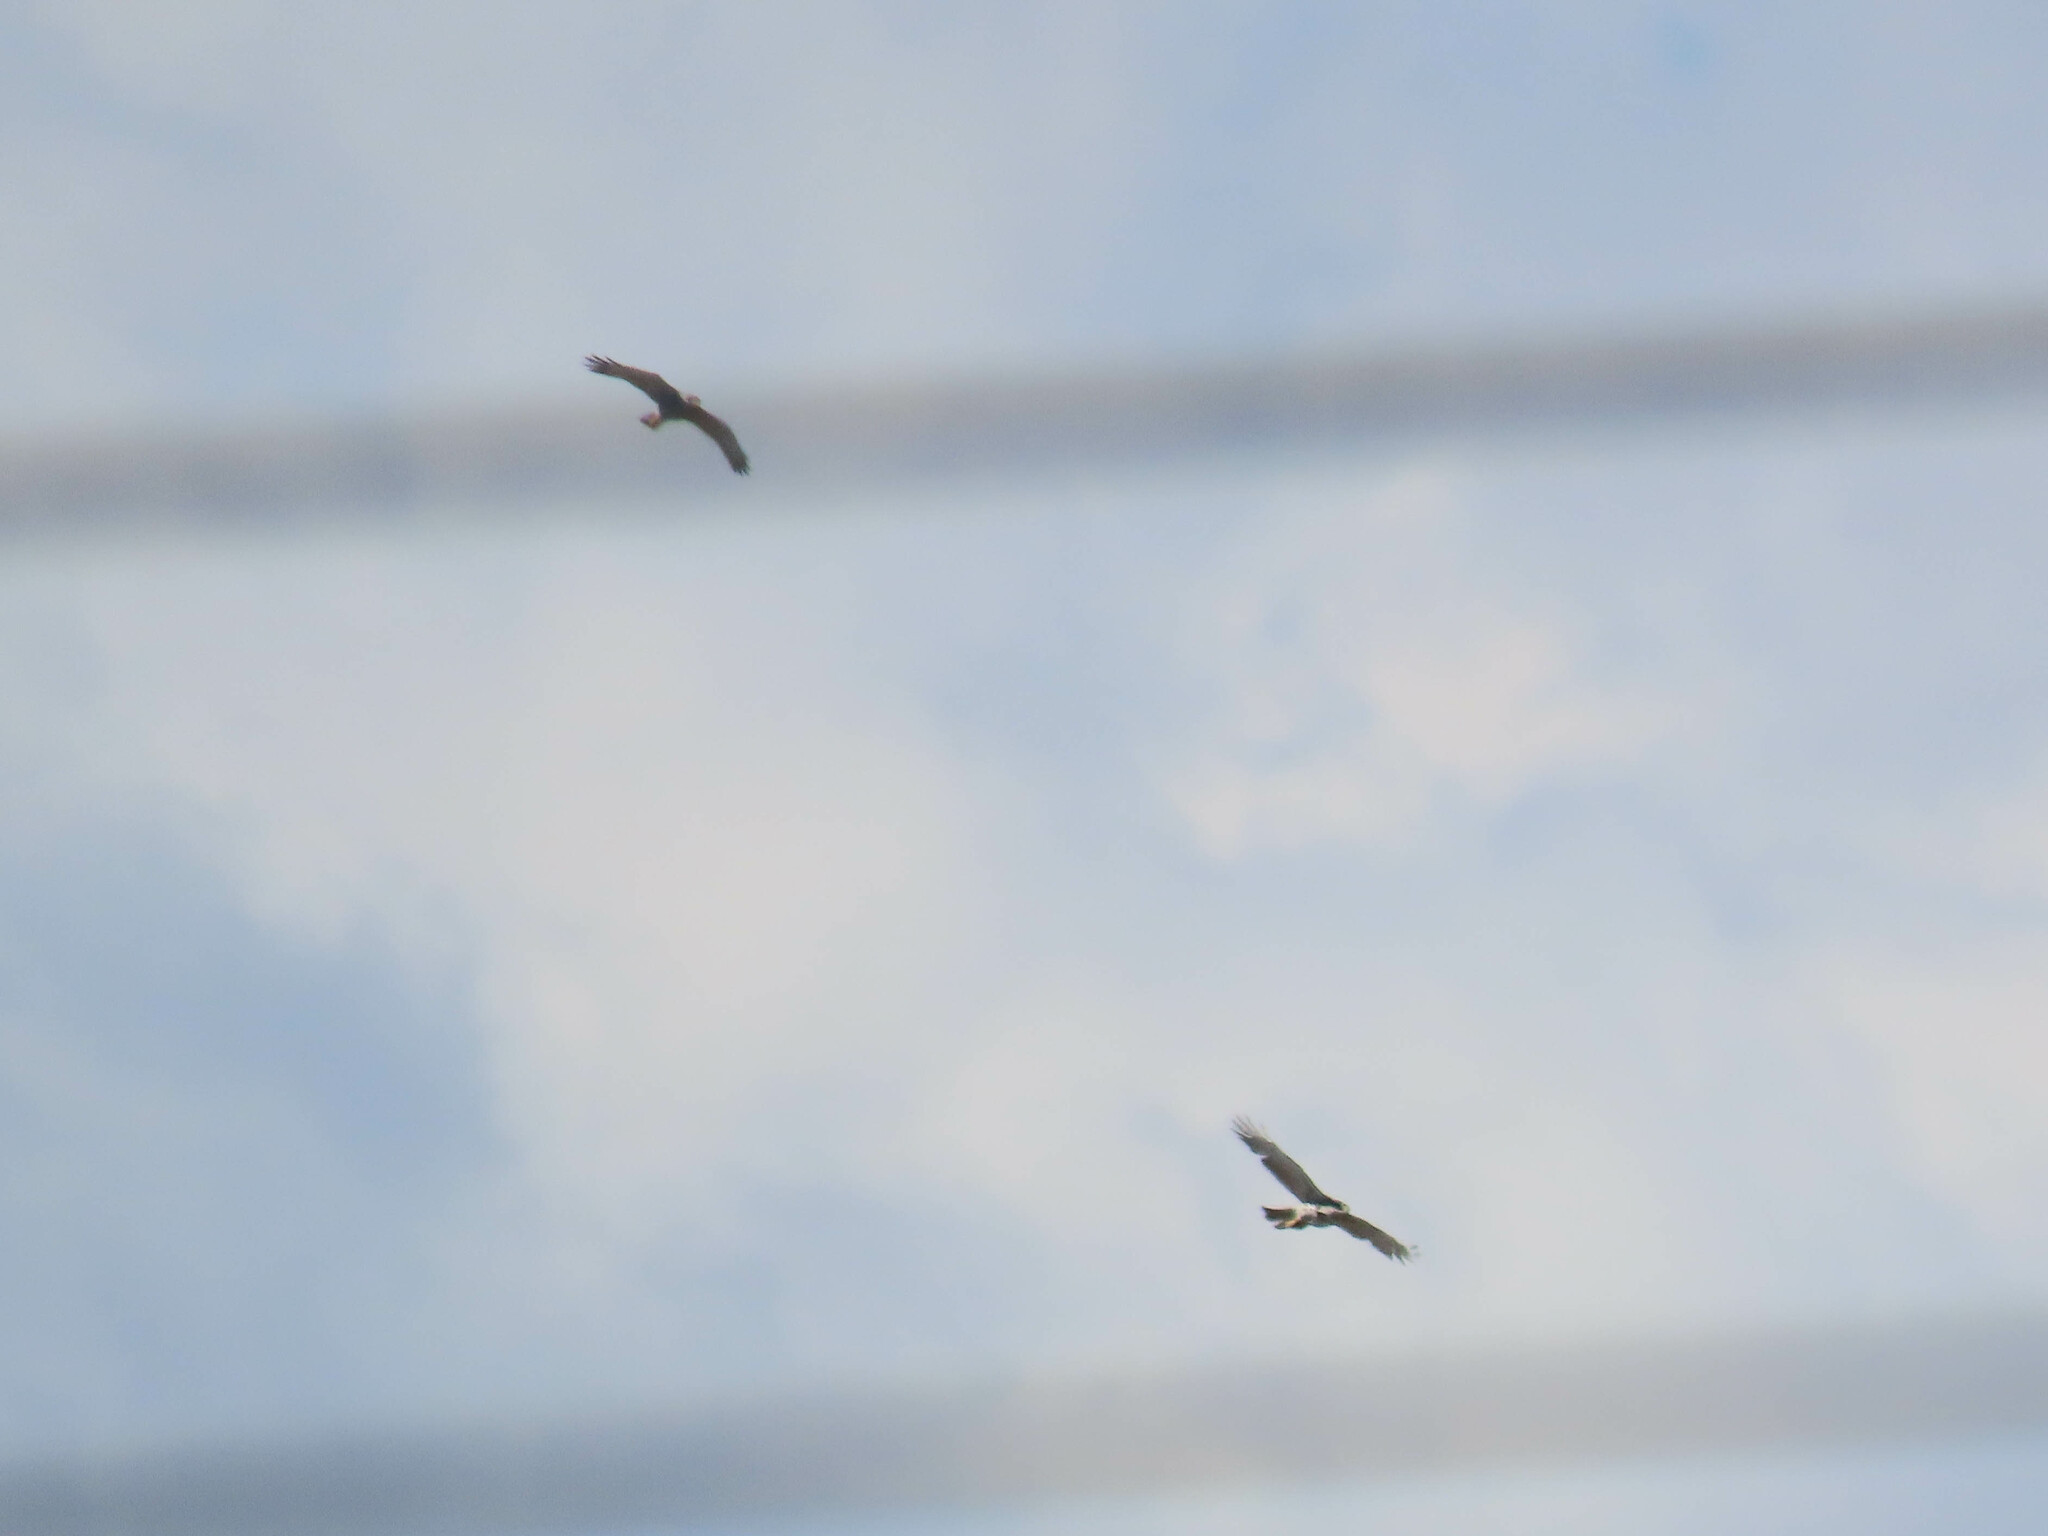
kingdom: Animalia
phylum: Chordata
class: Aves
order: Accipitriformes
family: Accipitridae
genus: Buteo
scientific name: Buteo nitidus
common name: Grey-lined hawk
